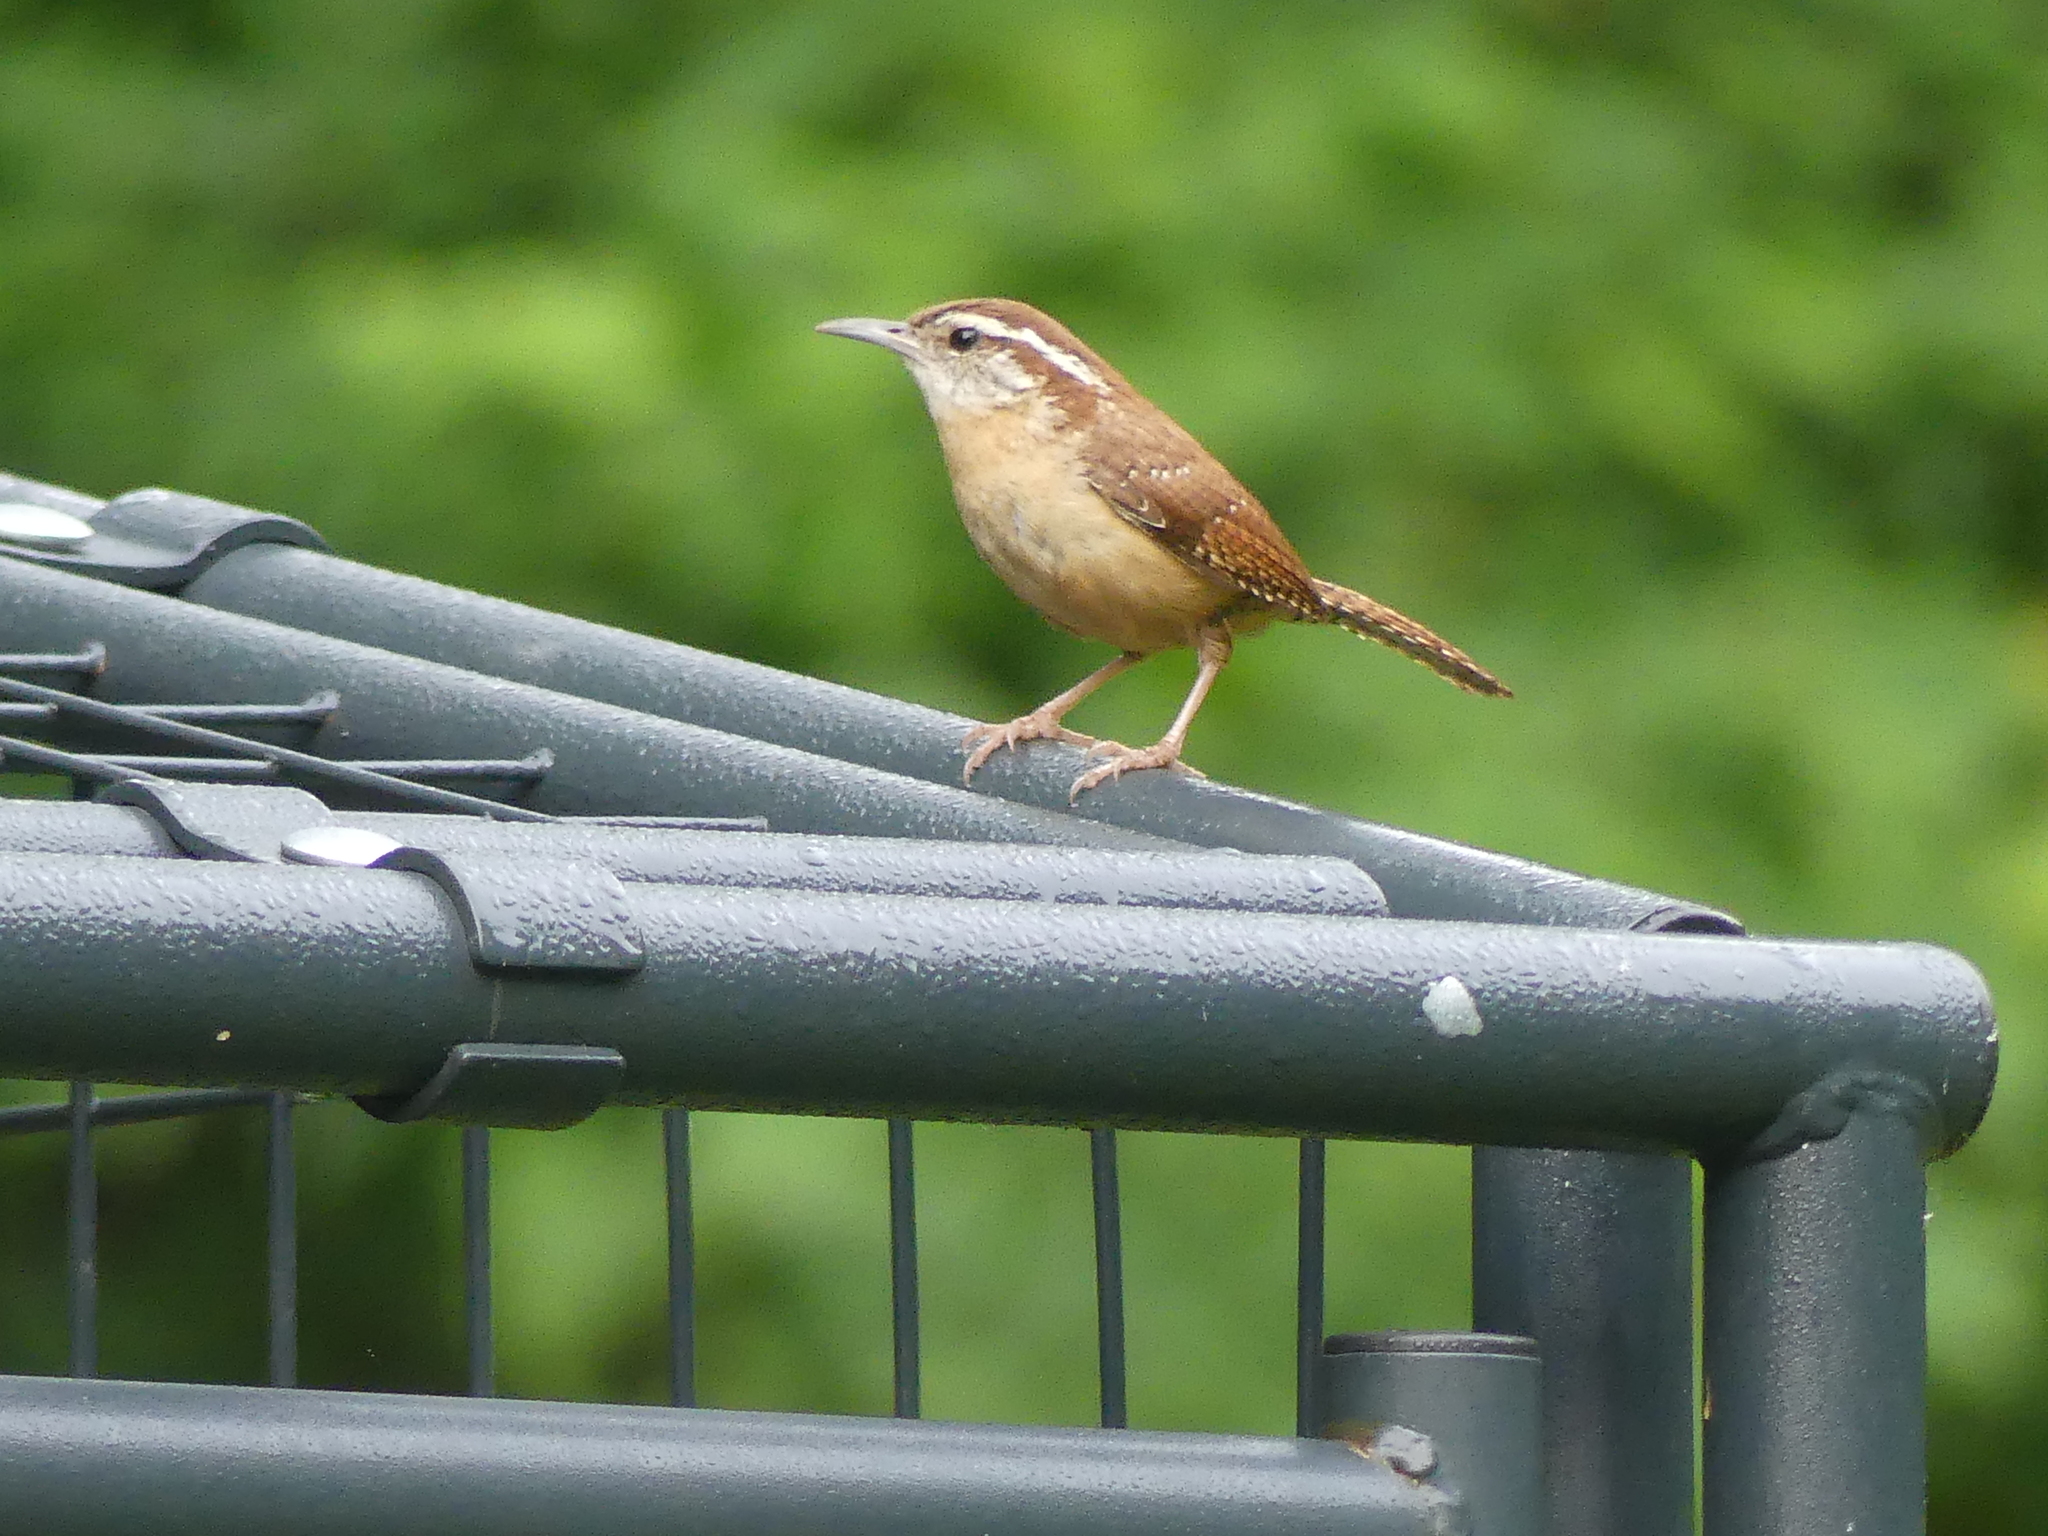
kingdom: Animalia
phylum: Chordata
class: Aves
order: Passeriformes
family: Troglodytidae
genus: Thryothorus
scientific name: Thryothorus ludovicianus
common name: Carolina wren
